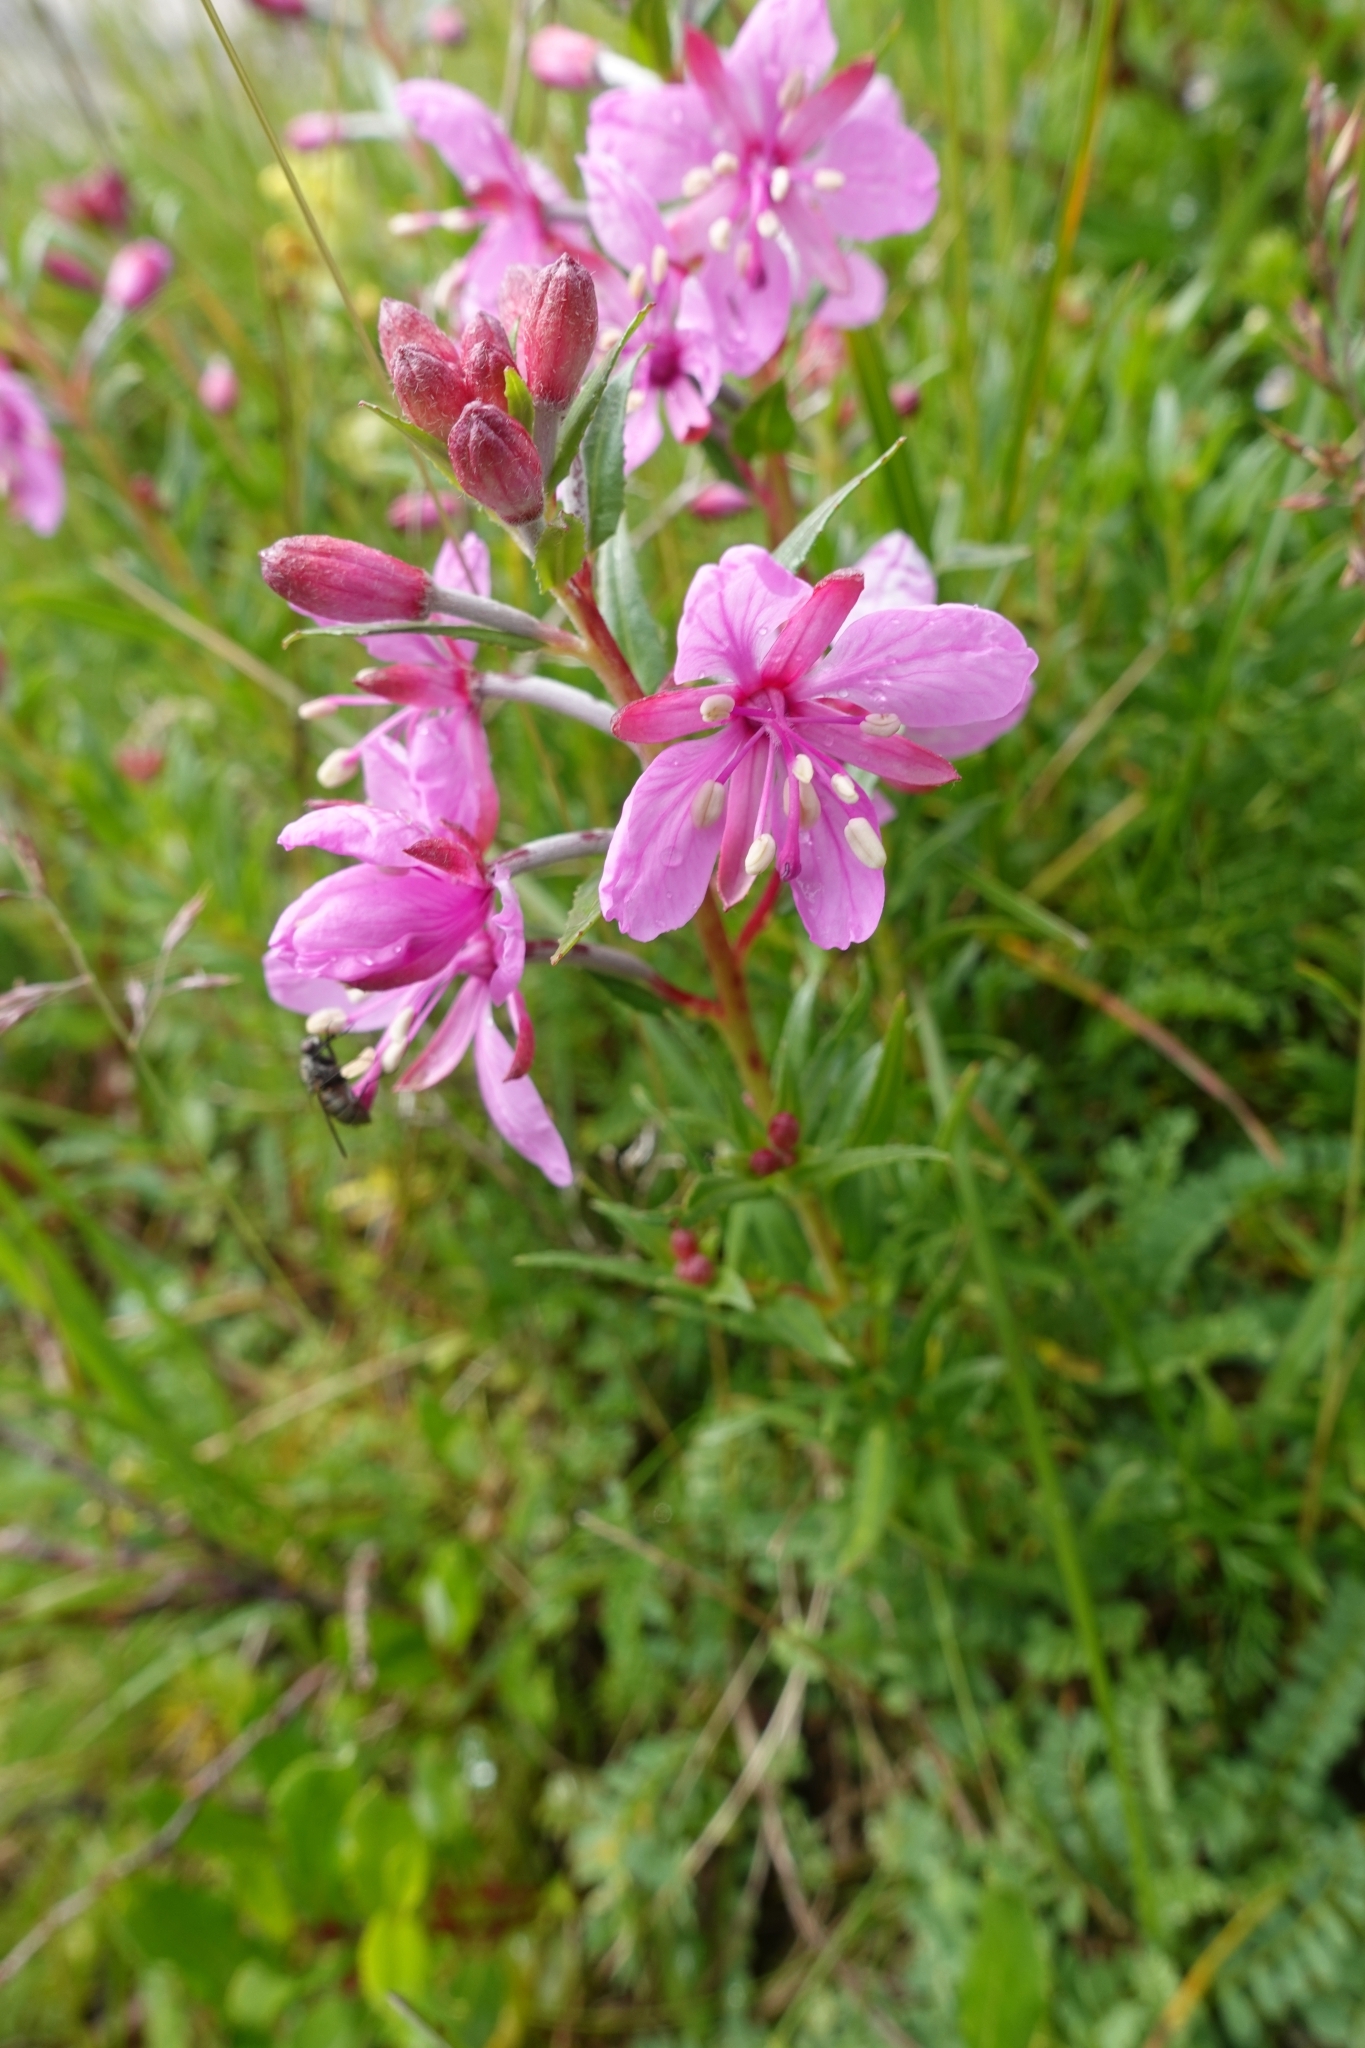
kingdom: Plantae
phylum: Tracheophyta
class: Magnoliopsida
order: Myrtales
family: Onagraceae
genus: Chamaenerion
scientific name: Chamaenerion colchicum
